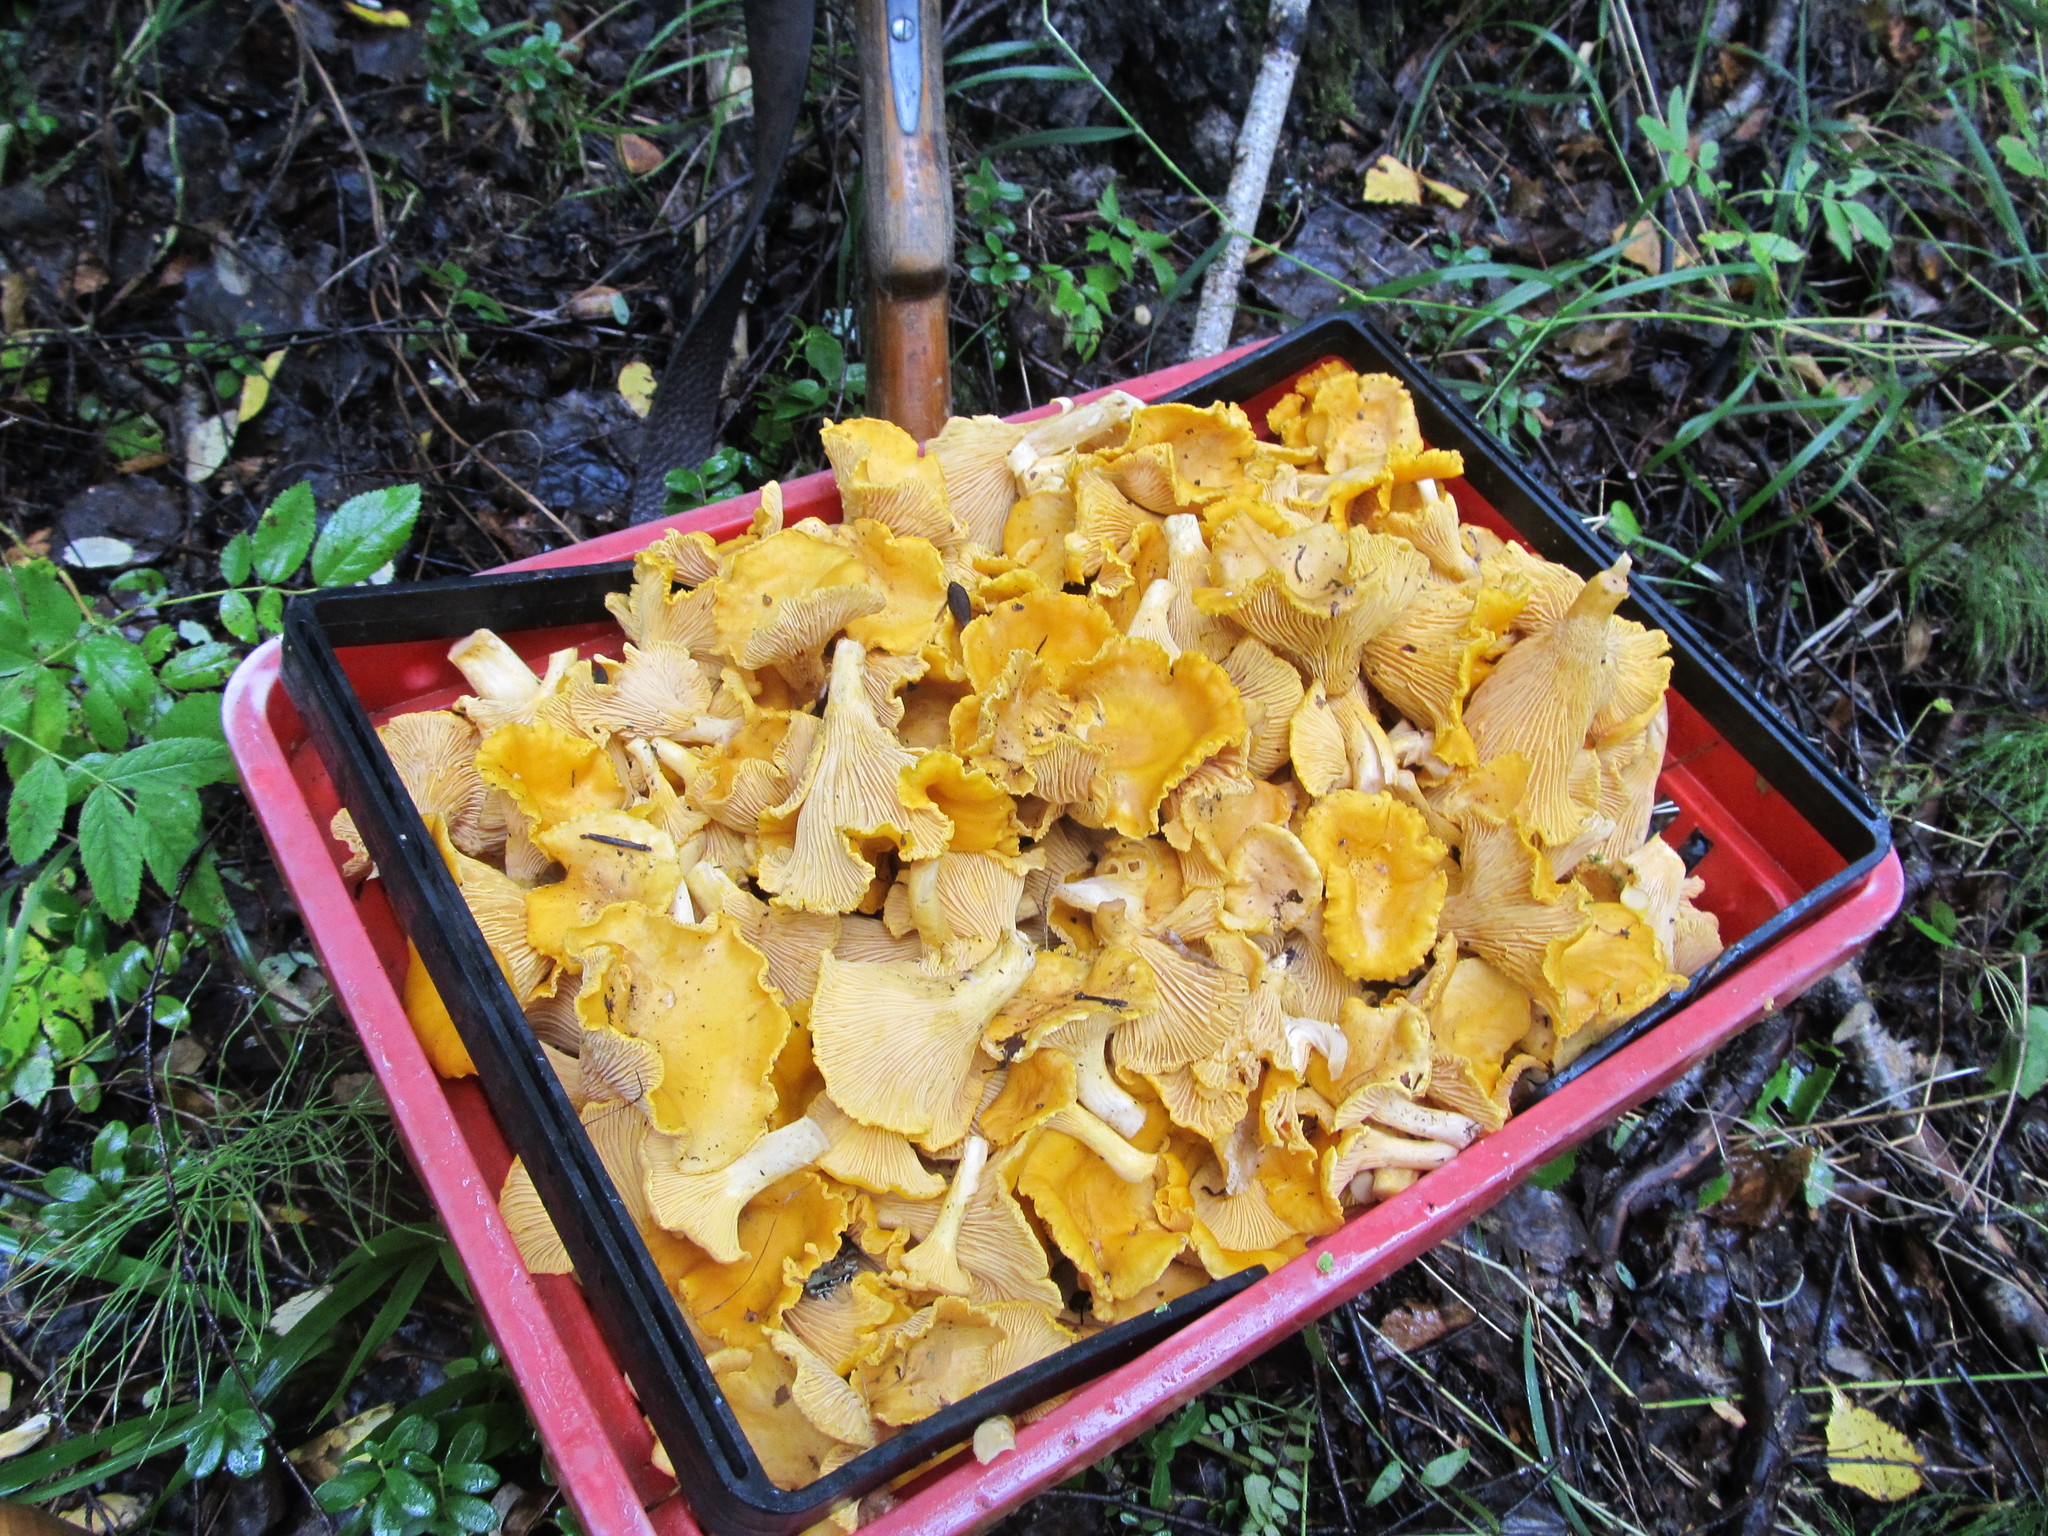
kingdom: Fungi
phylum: Basidiomycota
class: Agaricomycetes
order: Cantharellales
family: Hydnaceae
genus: Cantharellus
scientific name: Cantharellus cibarius
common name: Chanterelle
